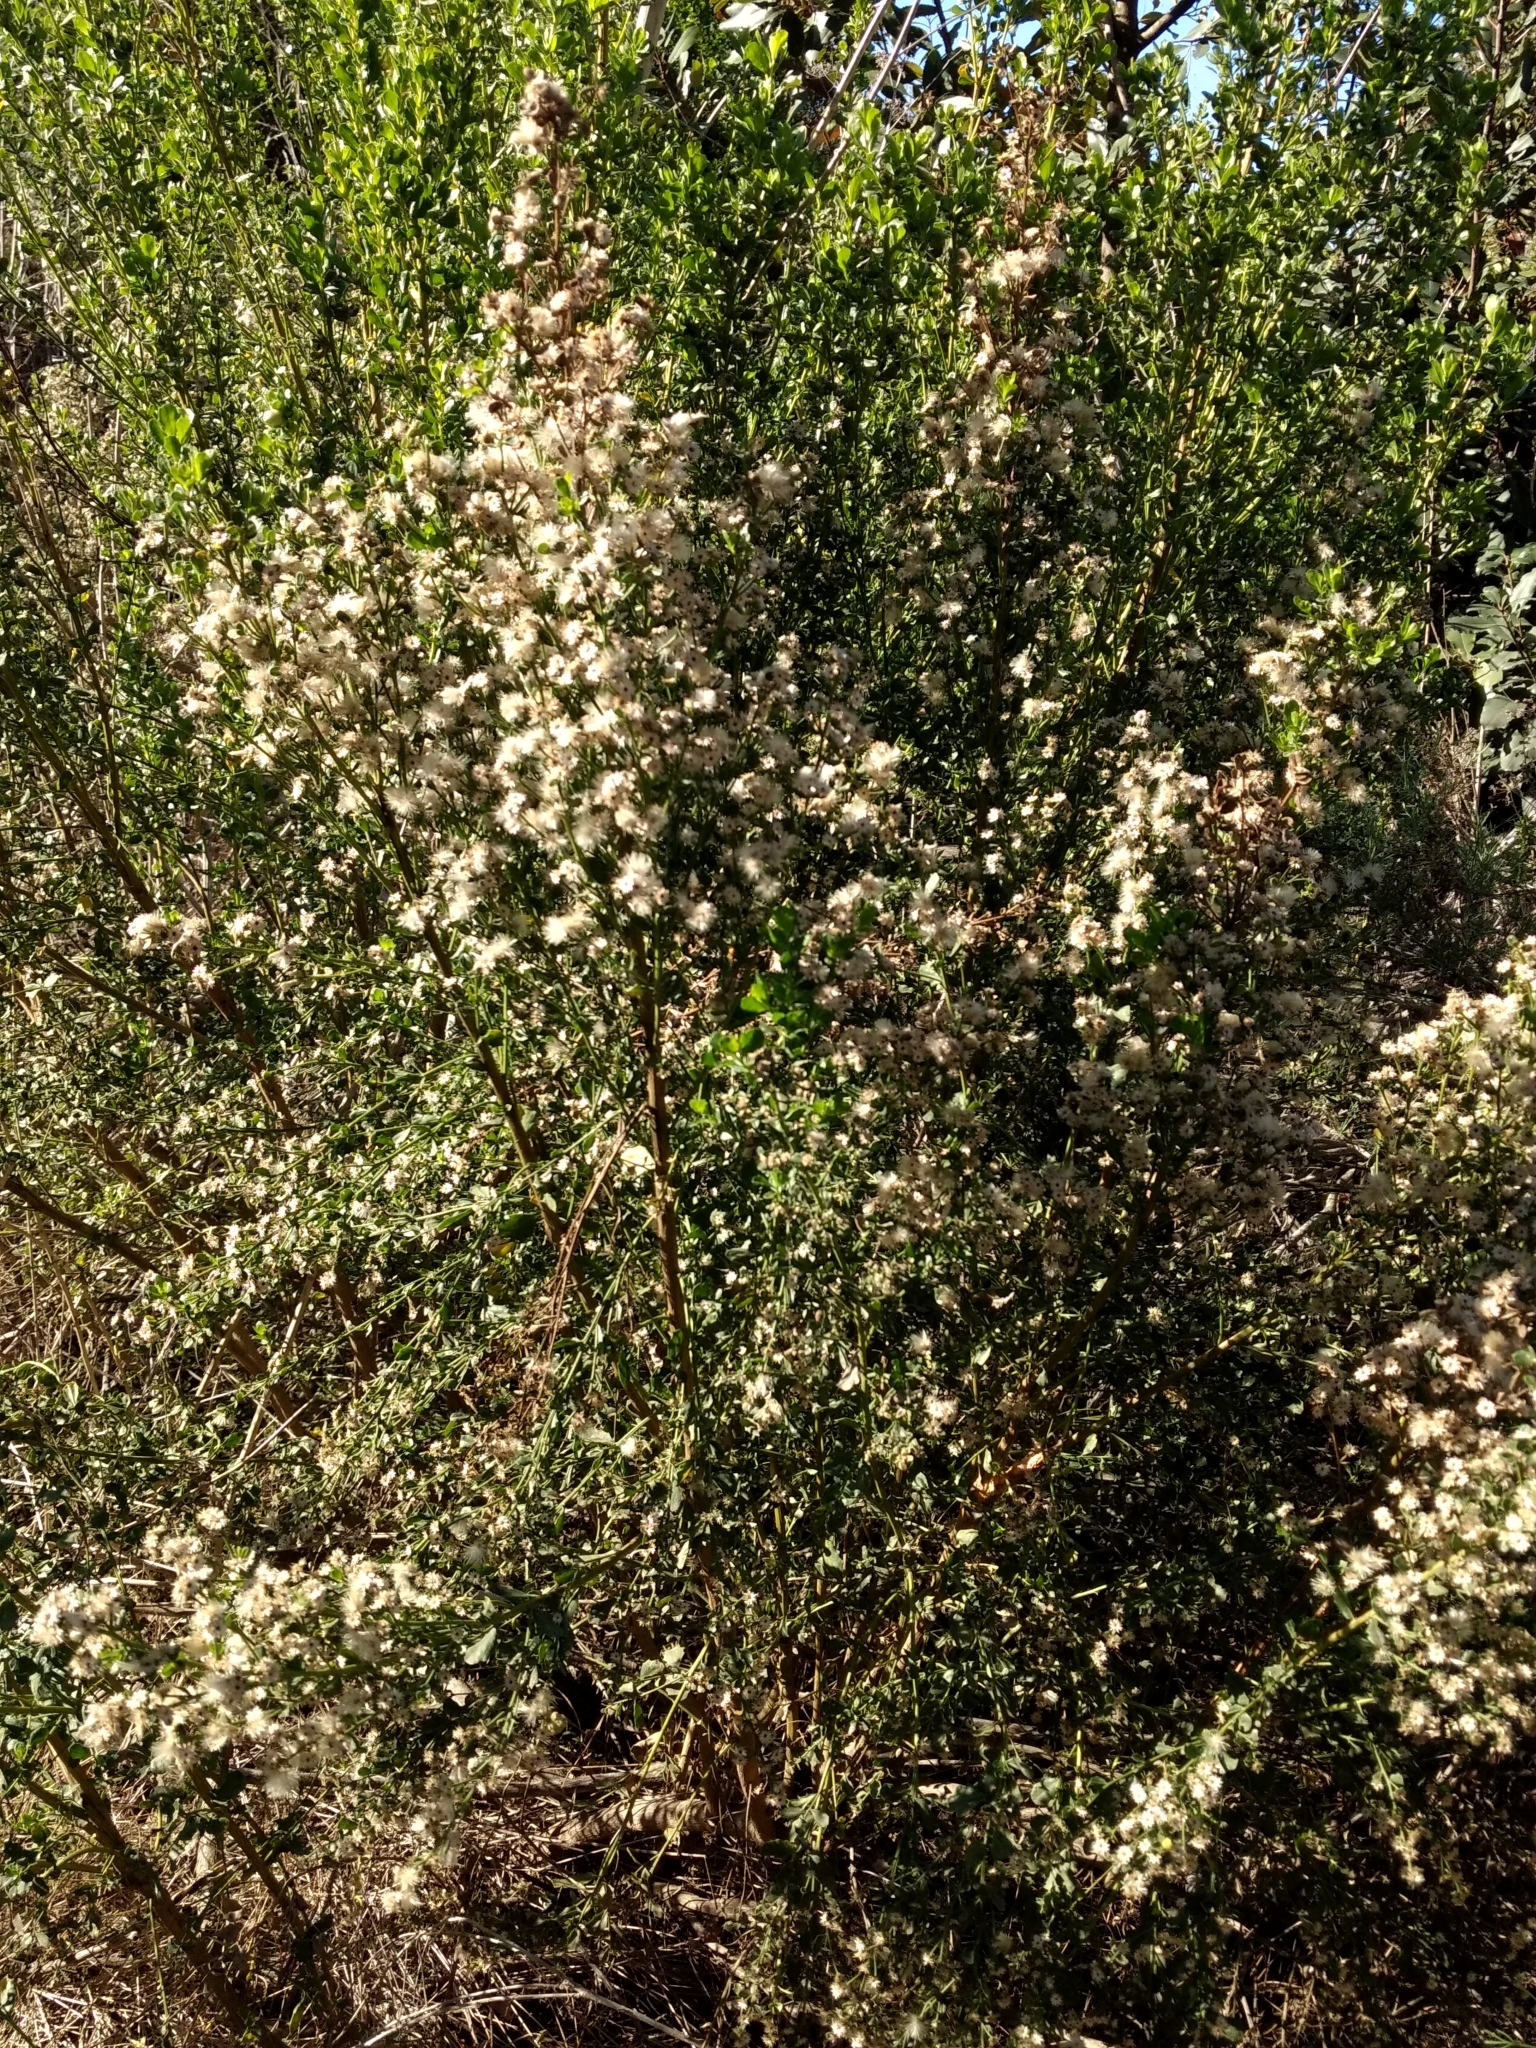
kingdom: Plantae
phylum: Tracheophyta
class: Magnoliopsida
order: Asterales
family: Asteraceae
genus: Baccharis
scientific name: Baccharis pilularis
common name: Coyotebrush
